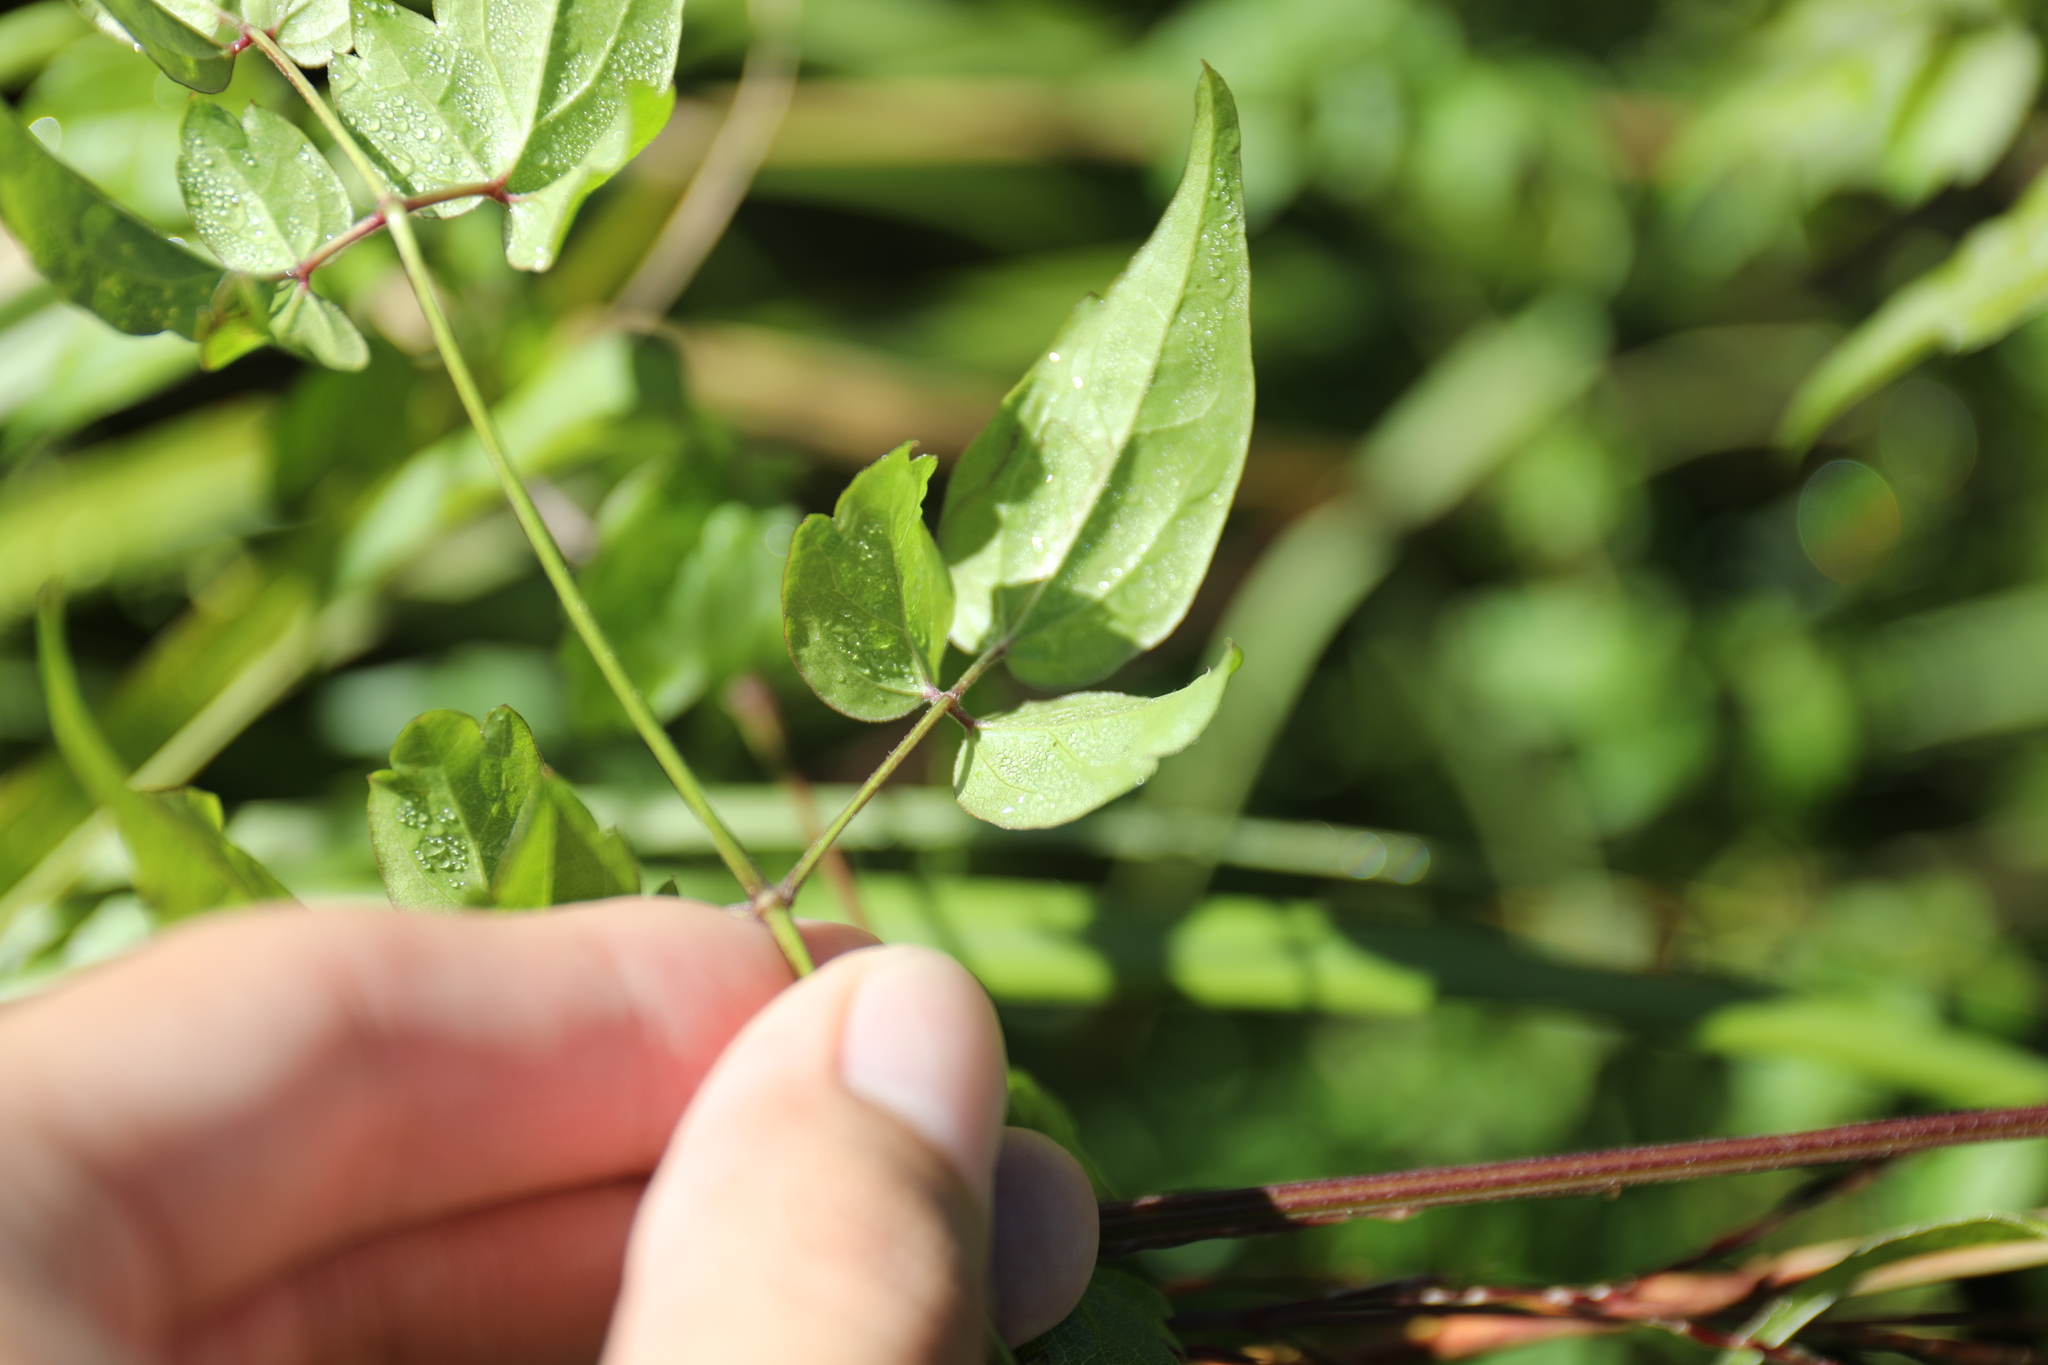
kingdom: Plantae
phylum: Tracheophyta
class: Magnoliopsida
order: Ranunculales
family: Ranunculaceae
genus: Clematis
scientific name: Clematis lishanensis
